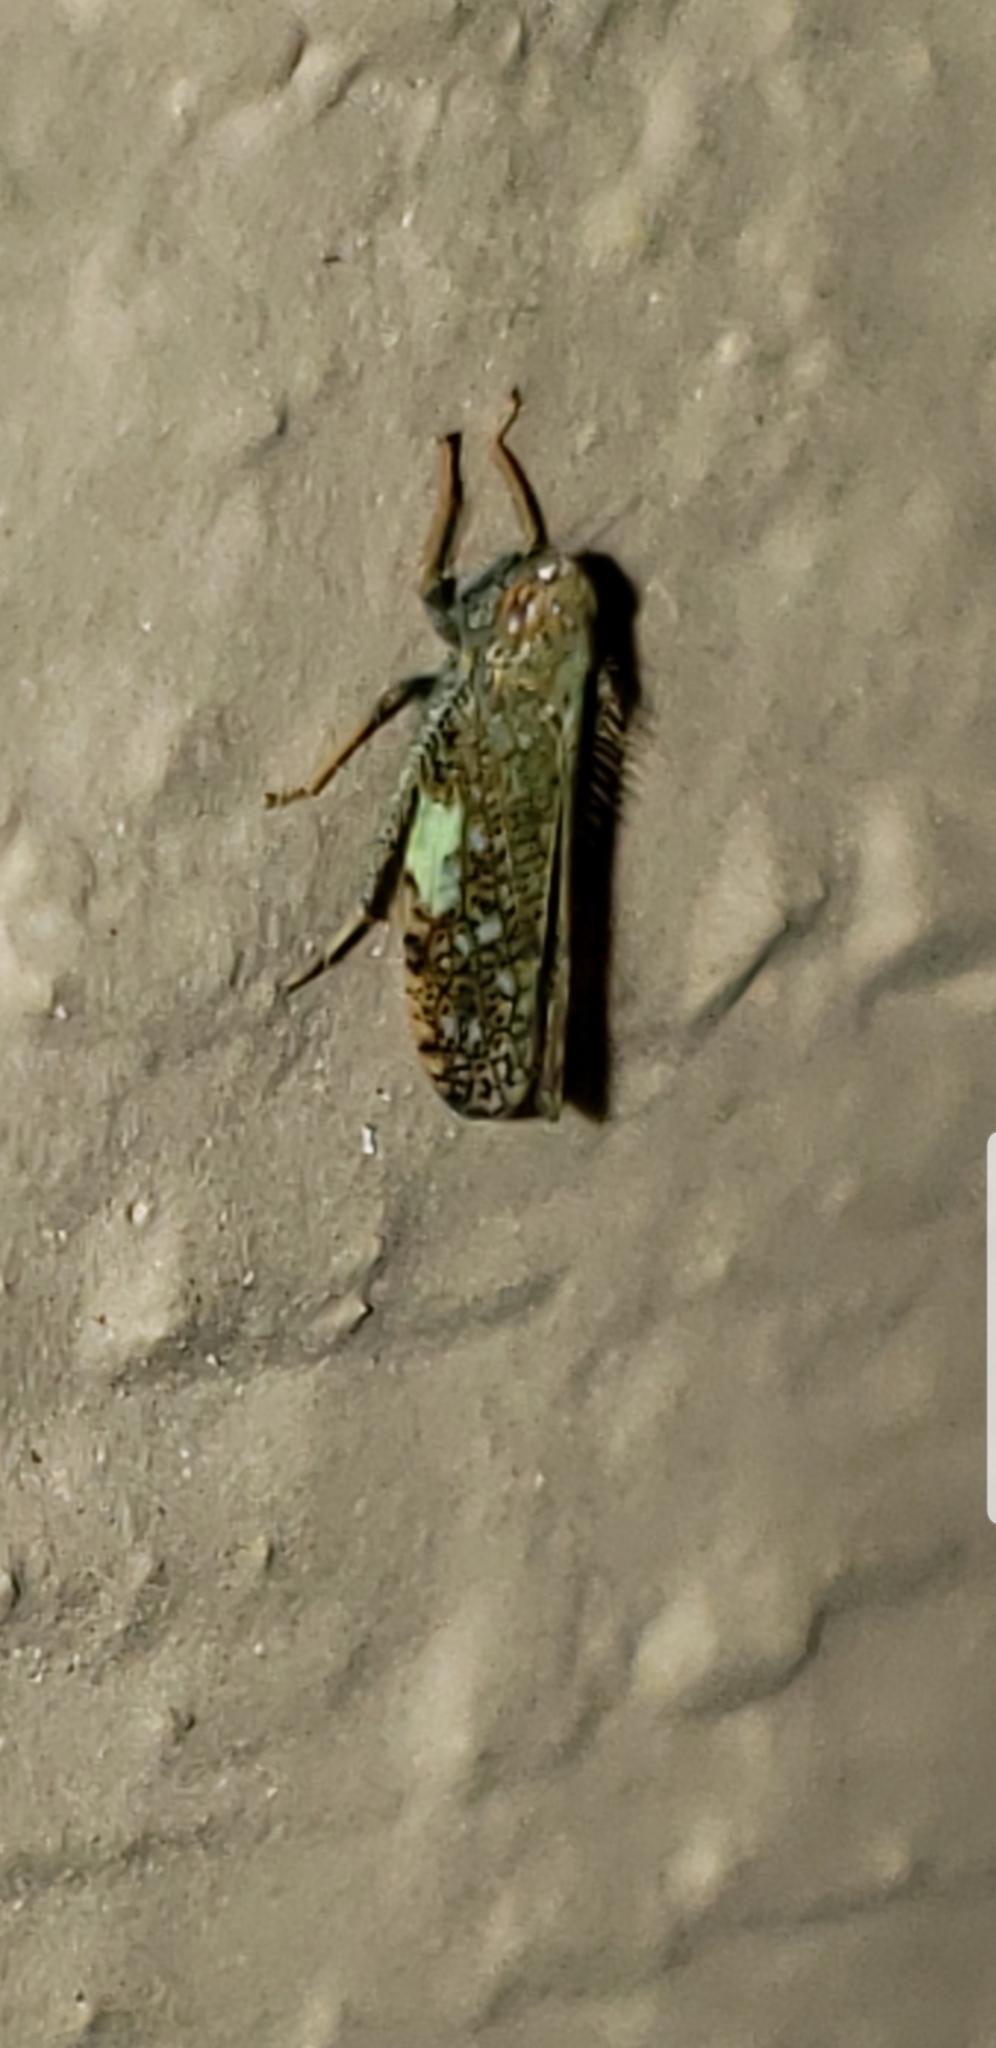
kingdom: Animalia
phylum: Arthropoda
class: Insecta
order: Hemiptera
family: Cicadellidae
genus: Orientus
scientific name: Orientus ishidae
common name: Japanese leafhopper
